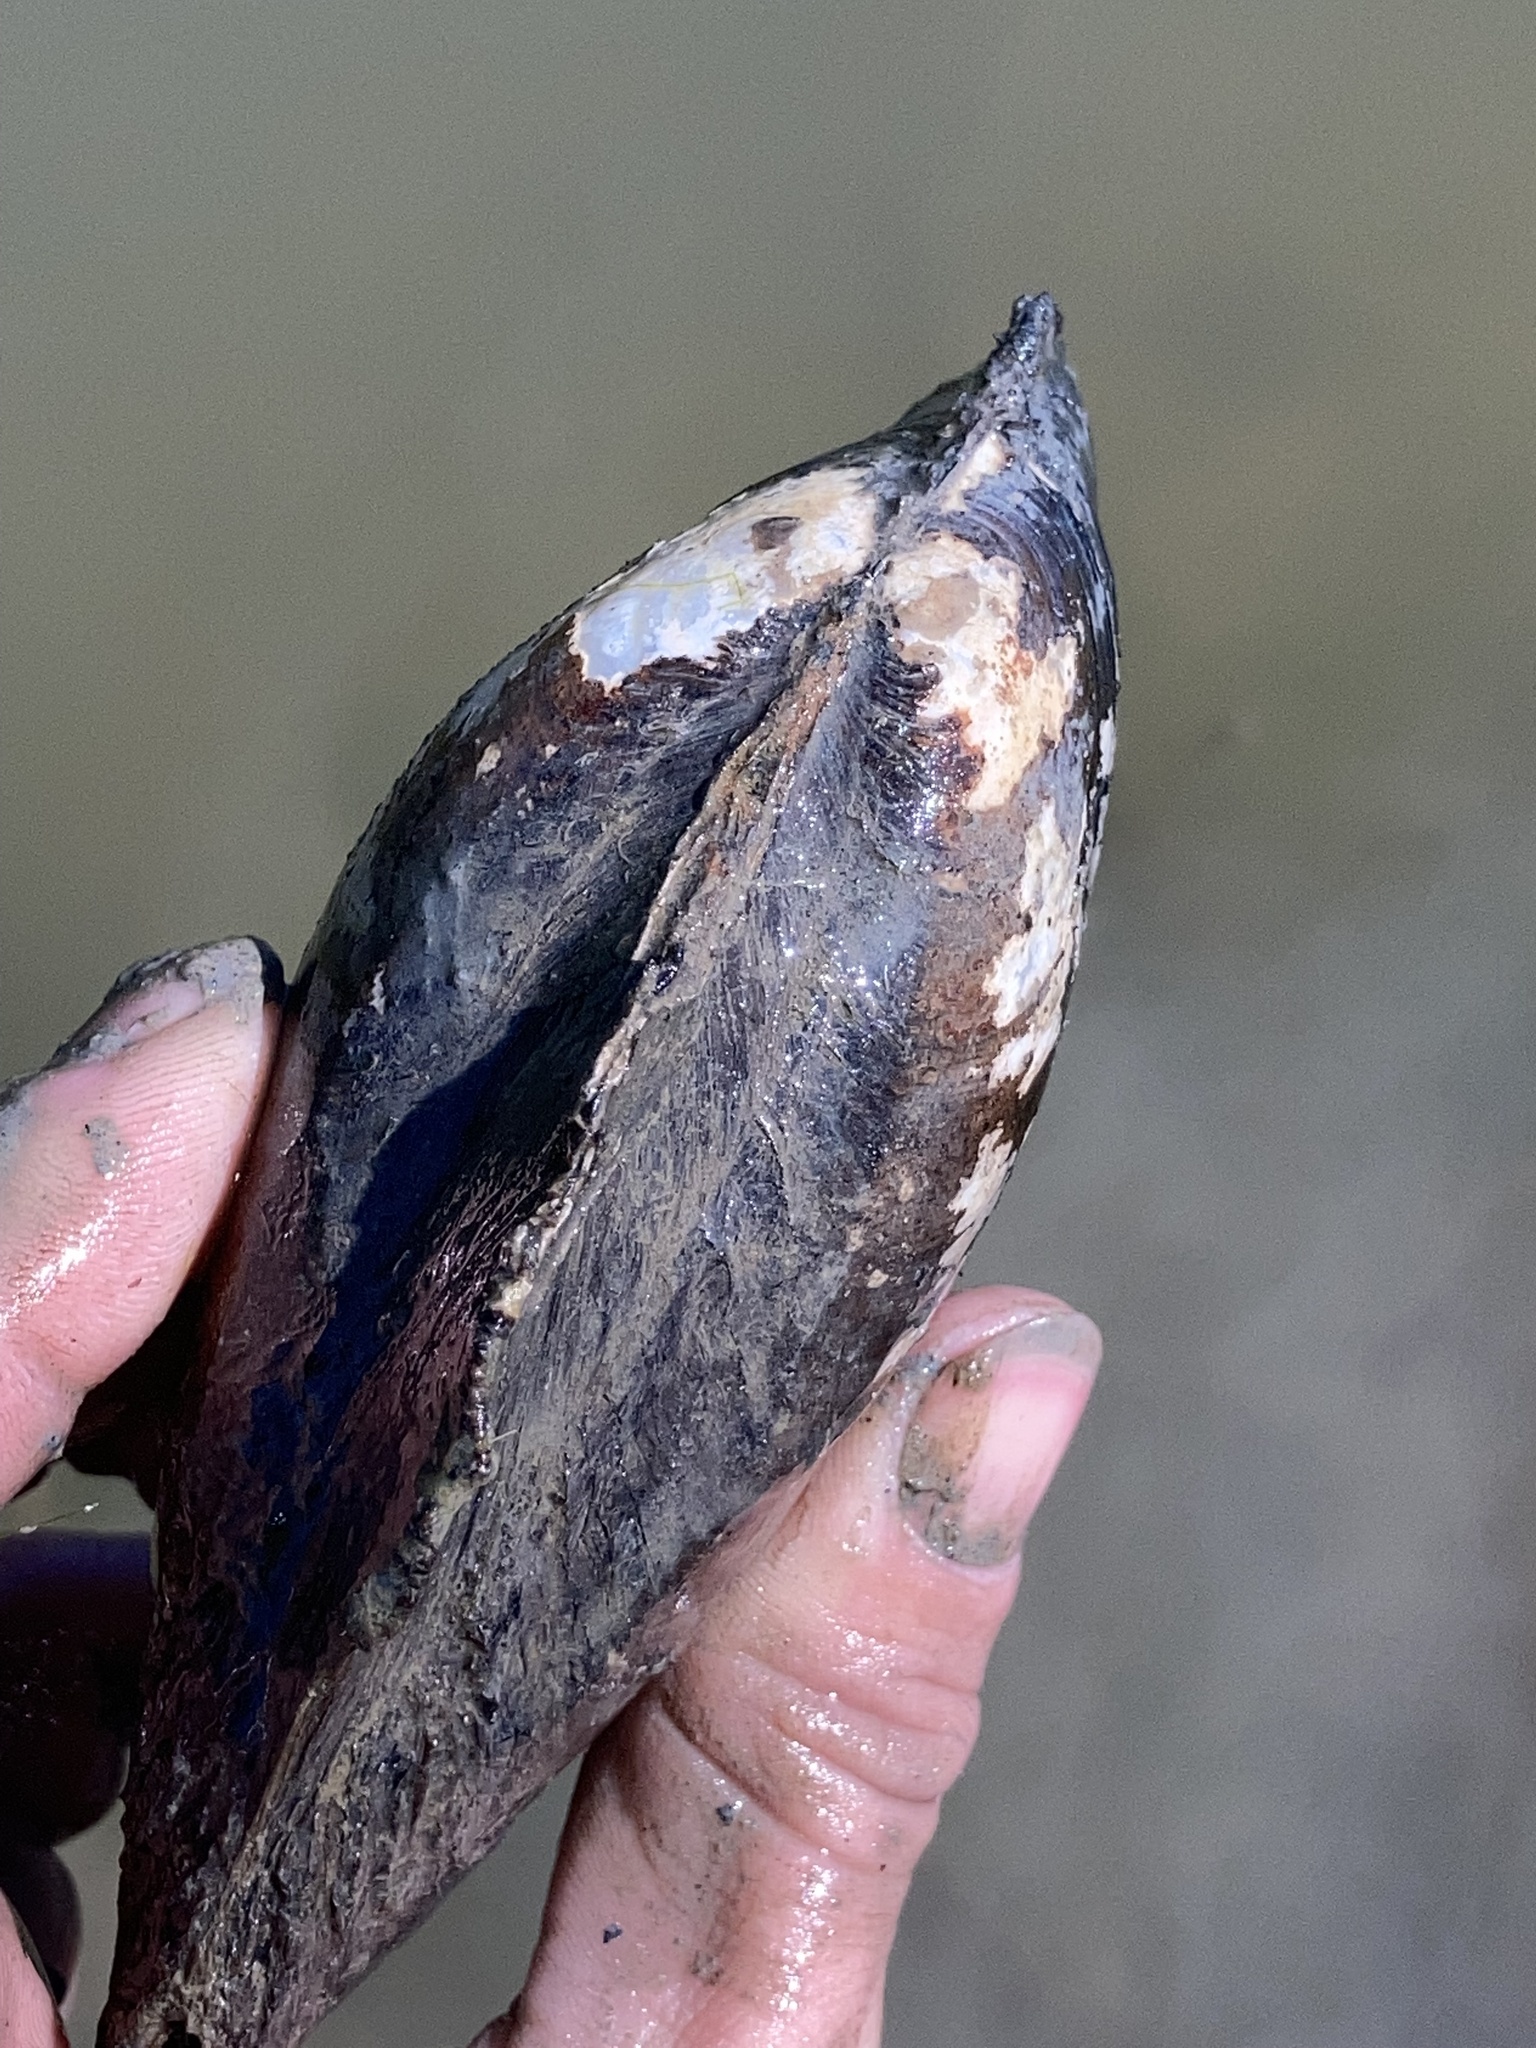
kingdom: Animalia
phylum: Mollusca
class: Bivalvia
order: Unionida
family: Unionidae
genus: Potamilus
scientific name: Potamilus fragilis
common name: Fragile papershell
